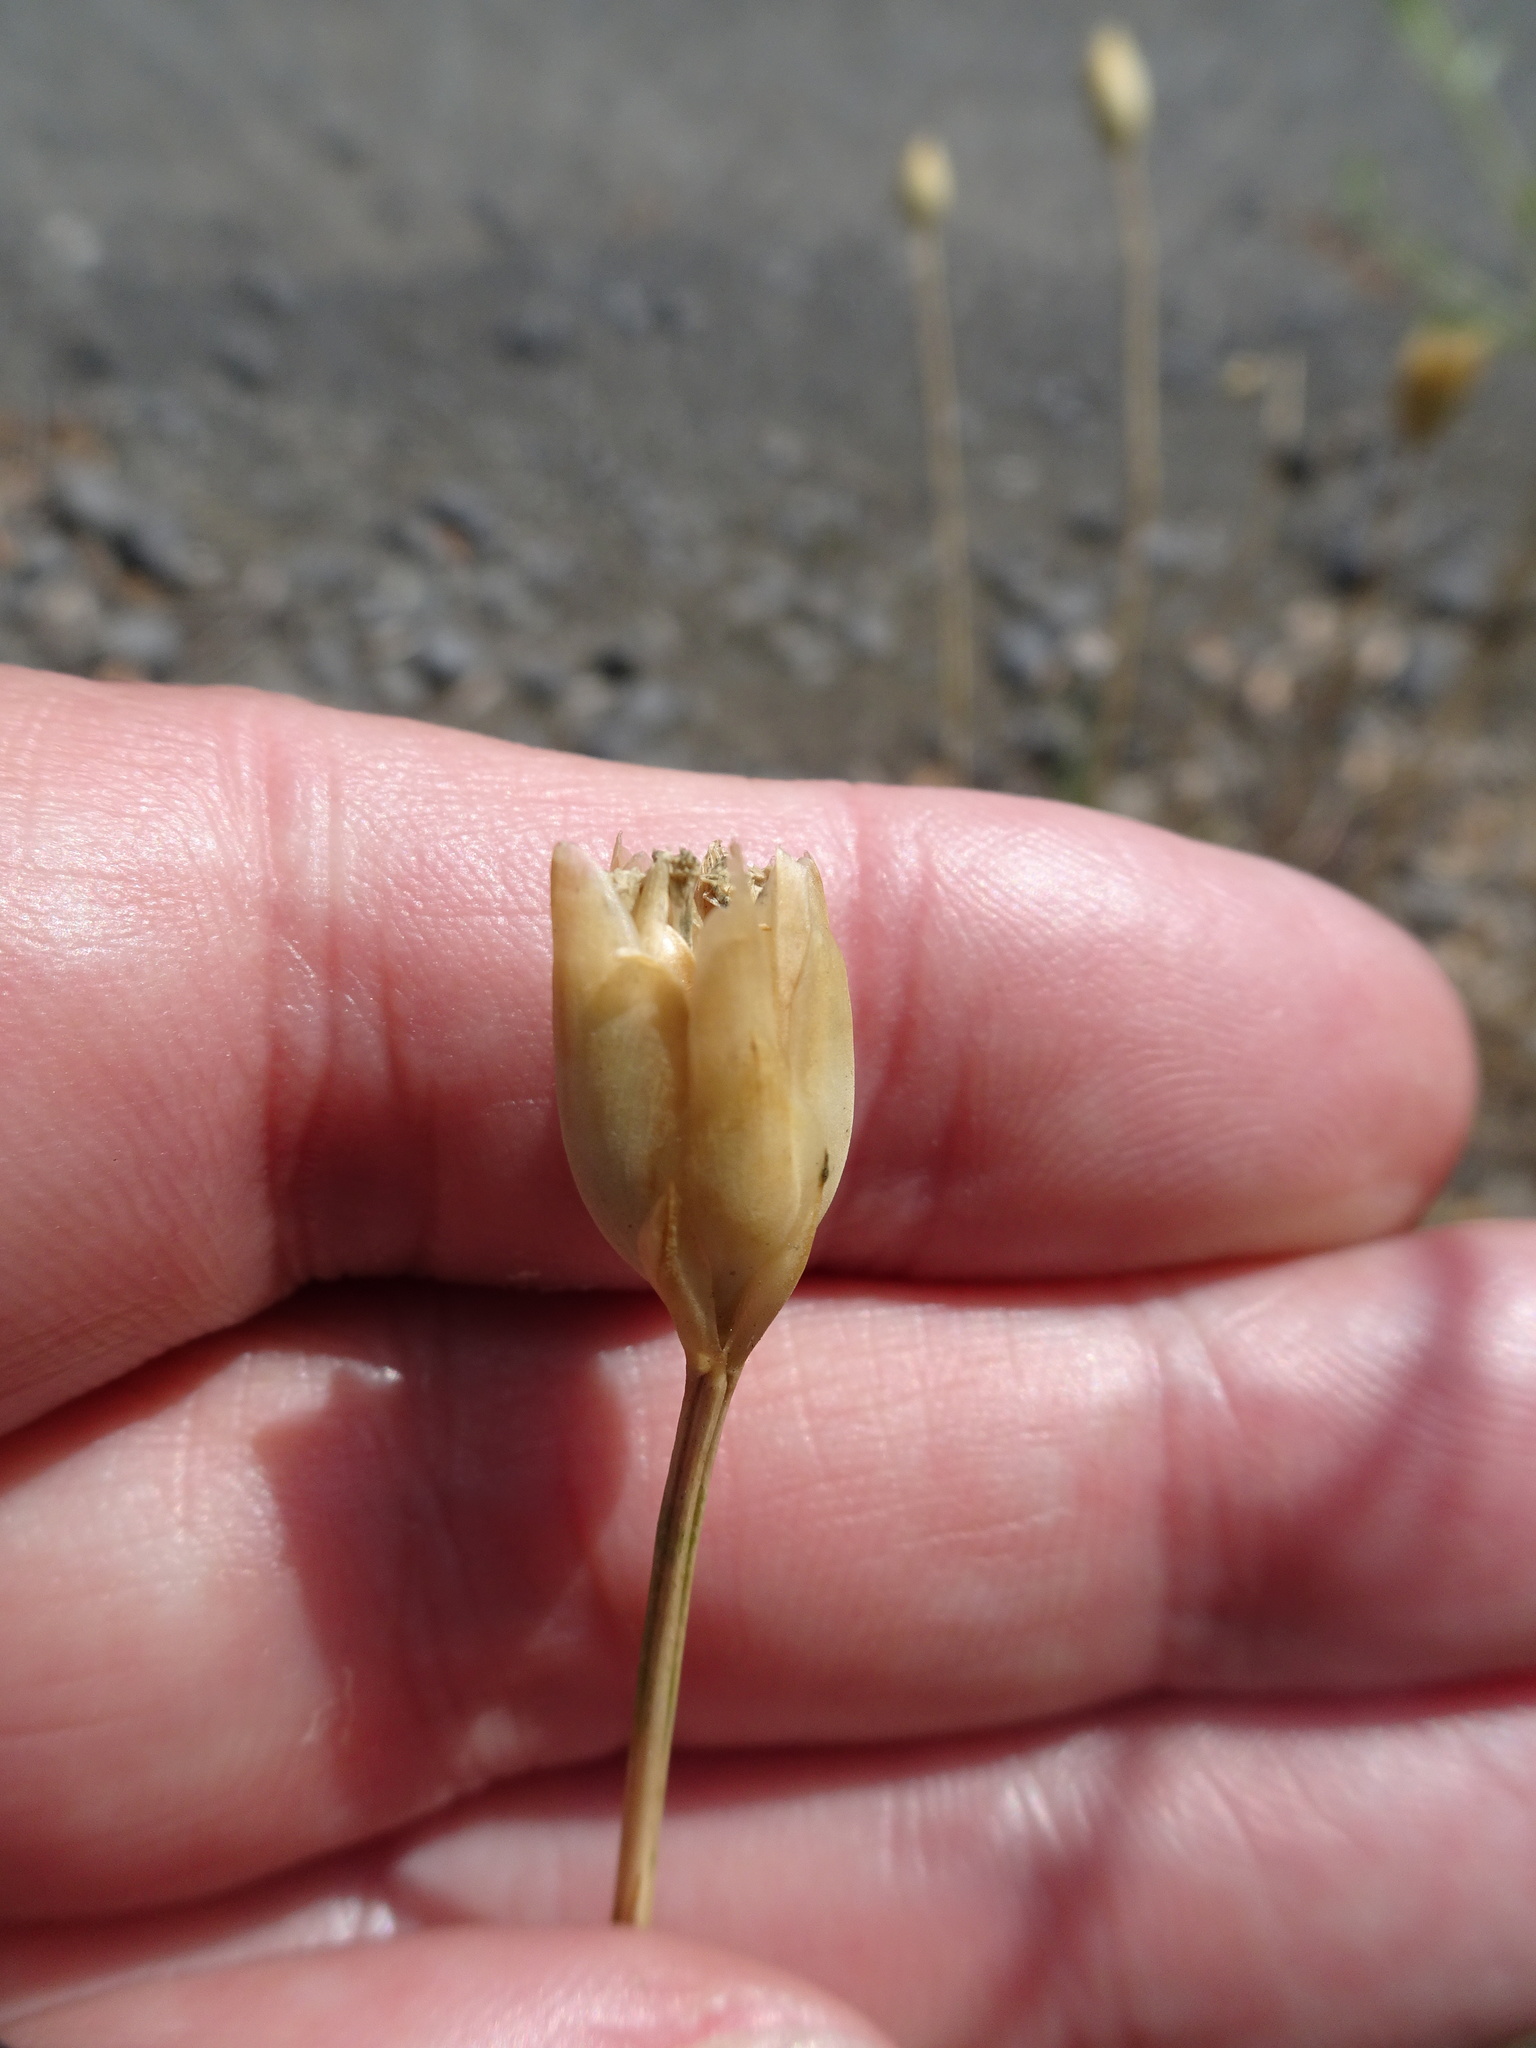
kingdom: Plantae
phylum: Tracheophyta
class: Magnoliopsida
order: Caryophyllales
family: Caryophyllaceae
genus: Petrorhagia
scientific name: Petrorhagia prolifera
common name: Proliferous pink
